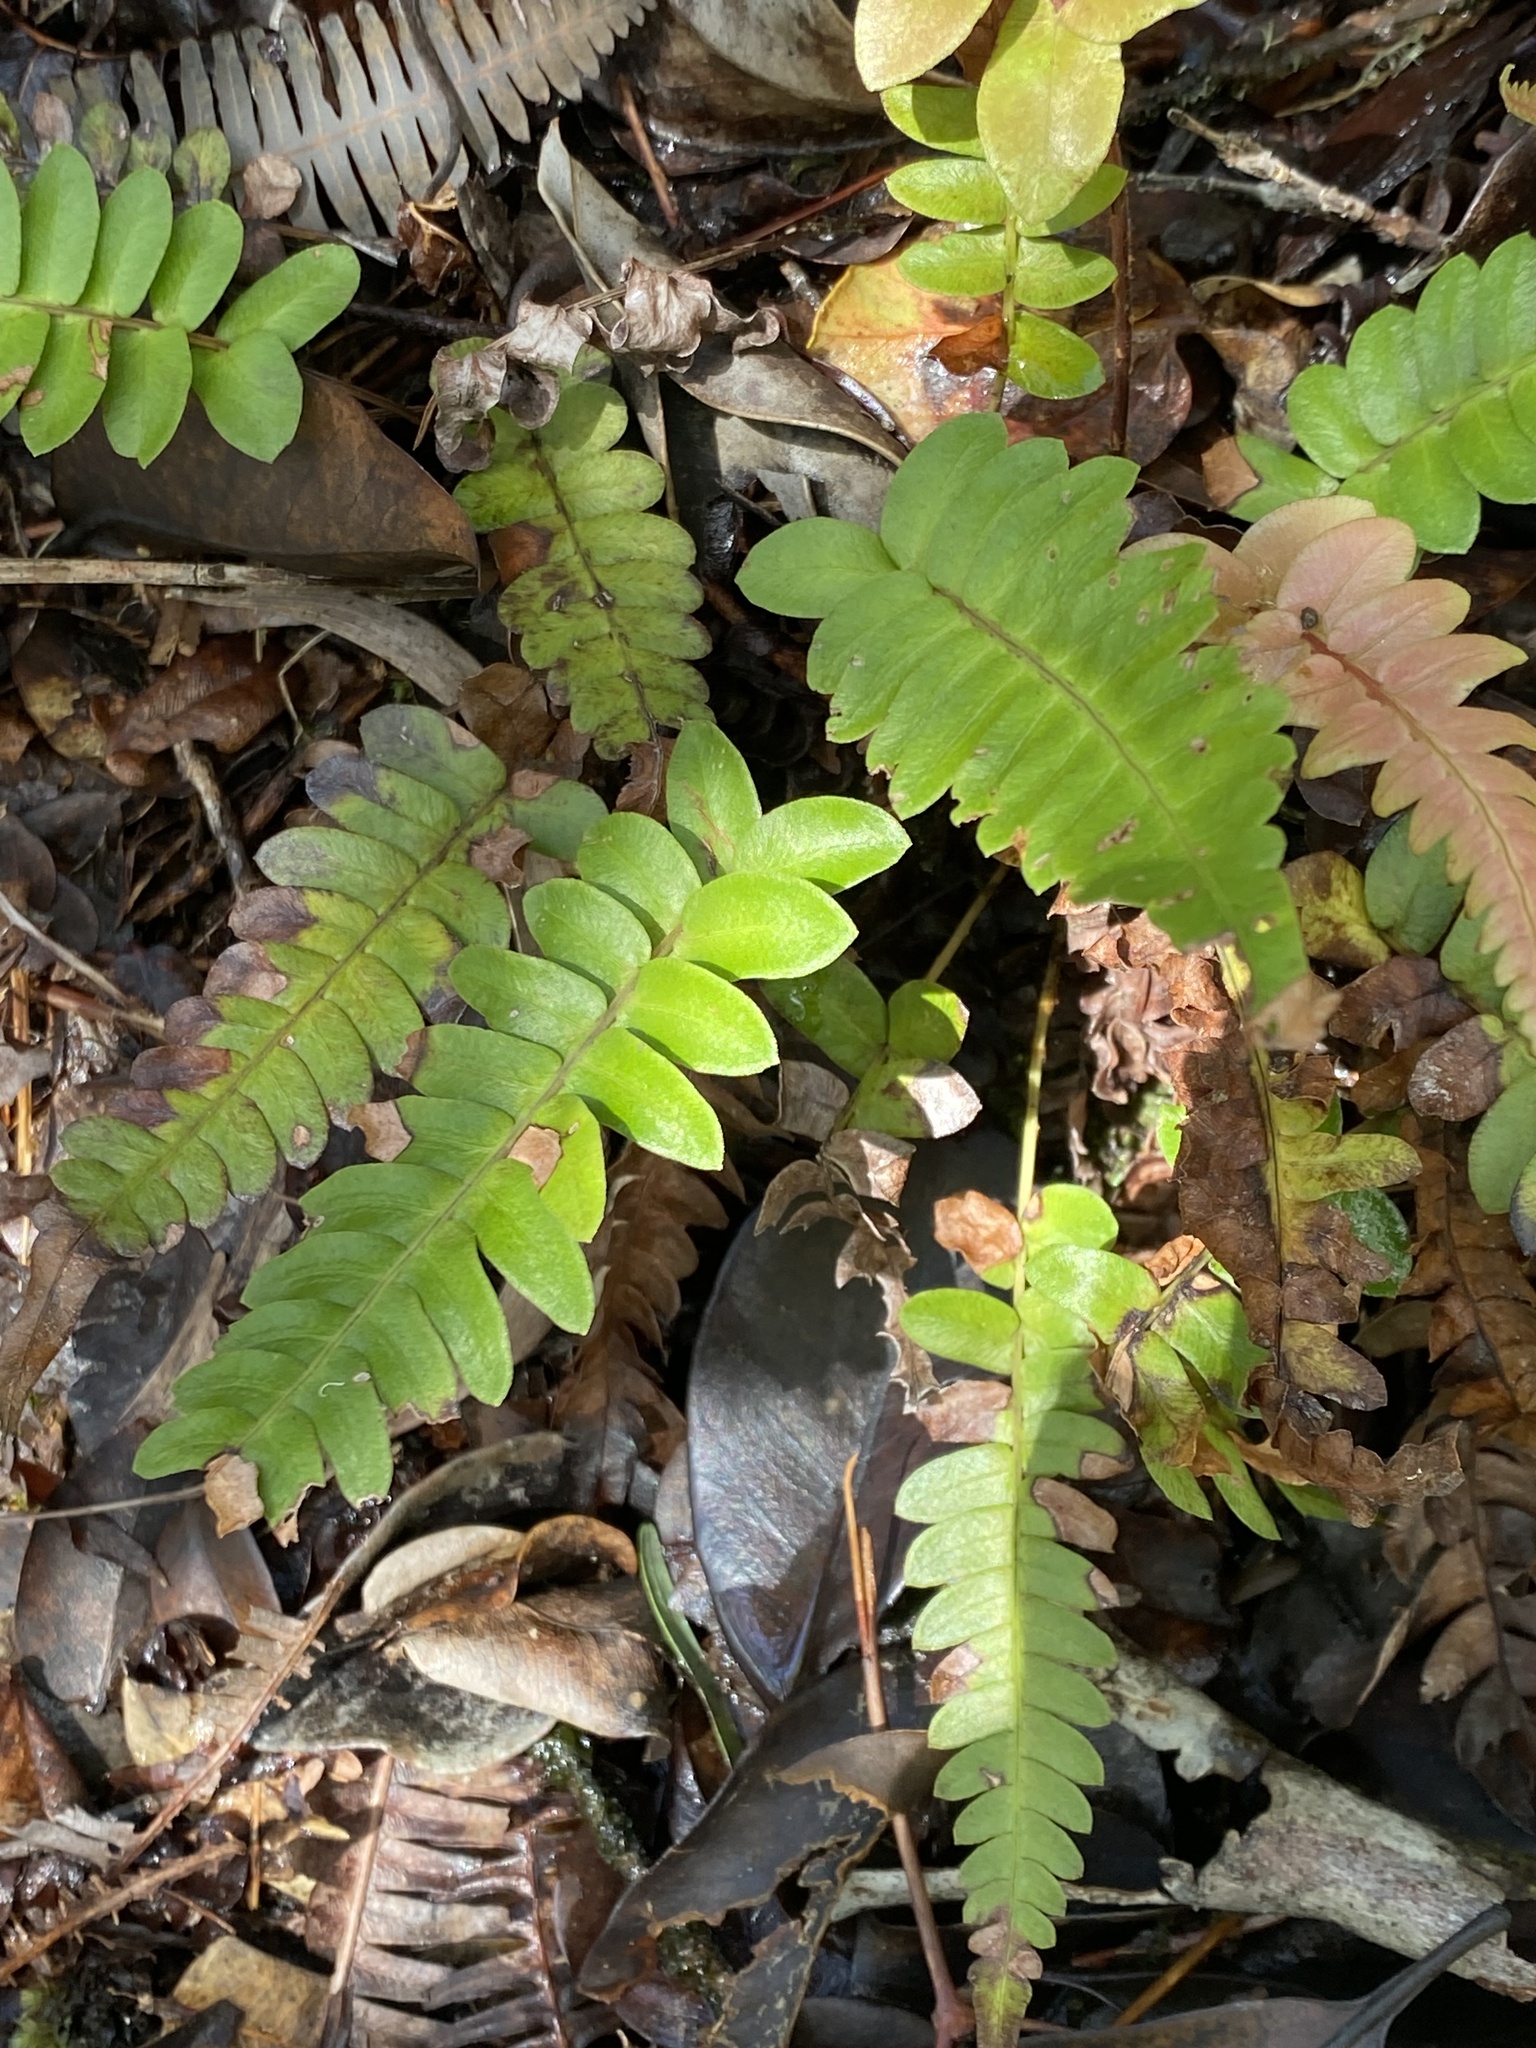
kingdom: Plantae
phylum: Tracheophyta
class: Polypodiopsida
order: Polypodiales
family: Blechnaceae
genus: Blechnum
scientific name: Blechnum appendiculatum
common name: Palm fern
